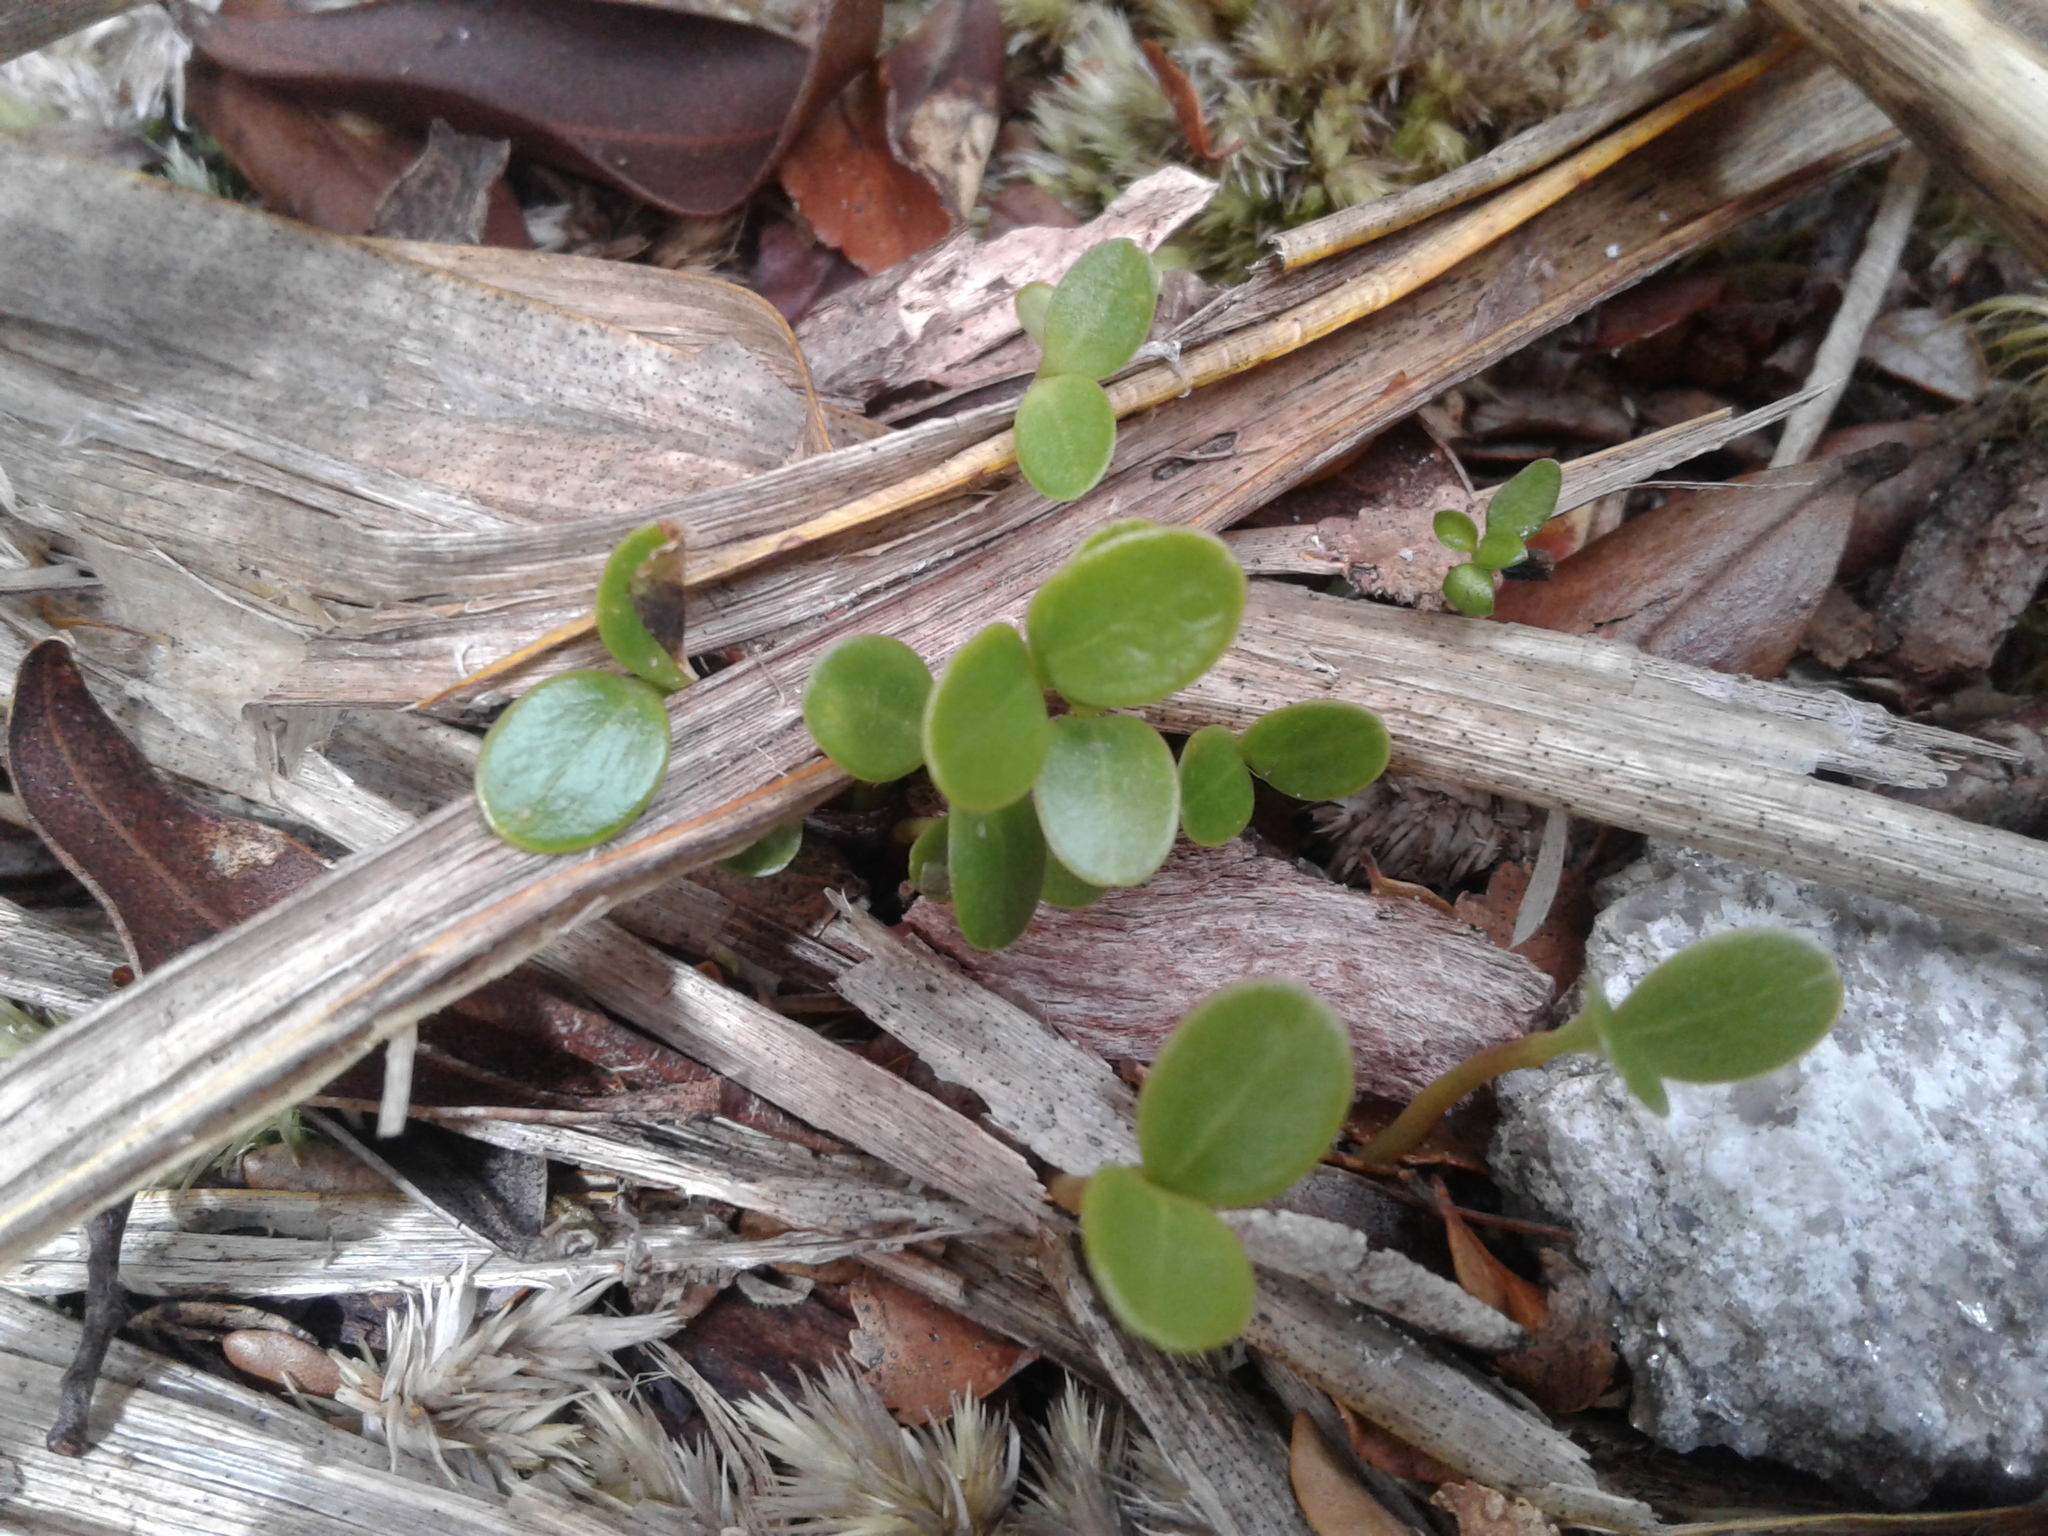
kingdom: Plantae
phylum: Tracheophyta
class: Magnoliopsida
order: Apiales
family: Griseliniaceae
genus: Griselinia
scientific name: Griselinia littoralis
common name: New zealand broadleaf
